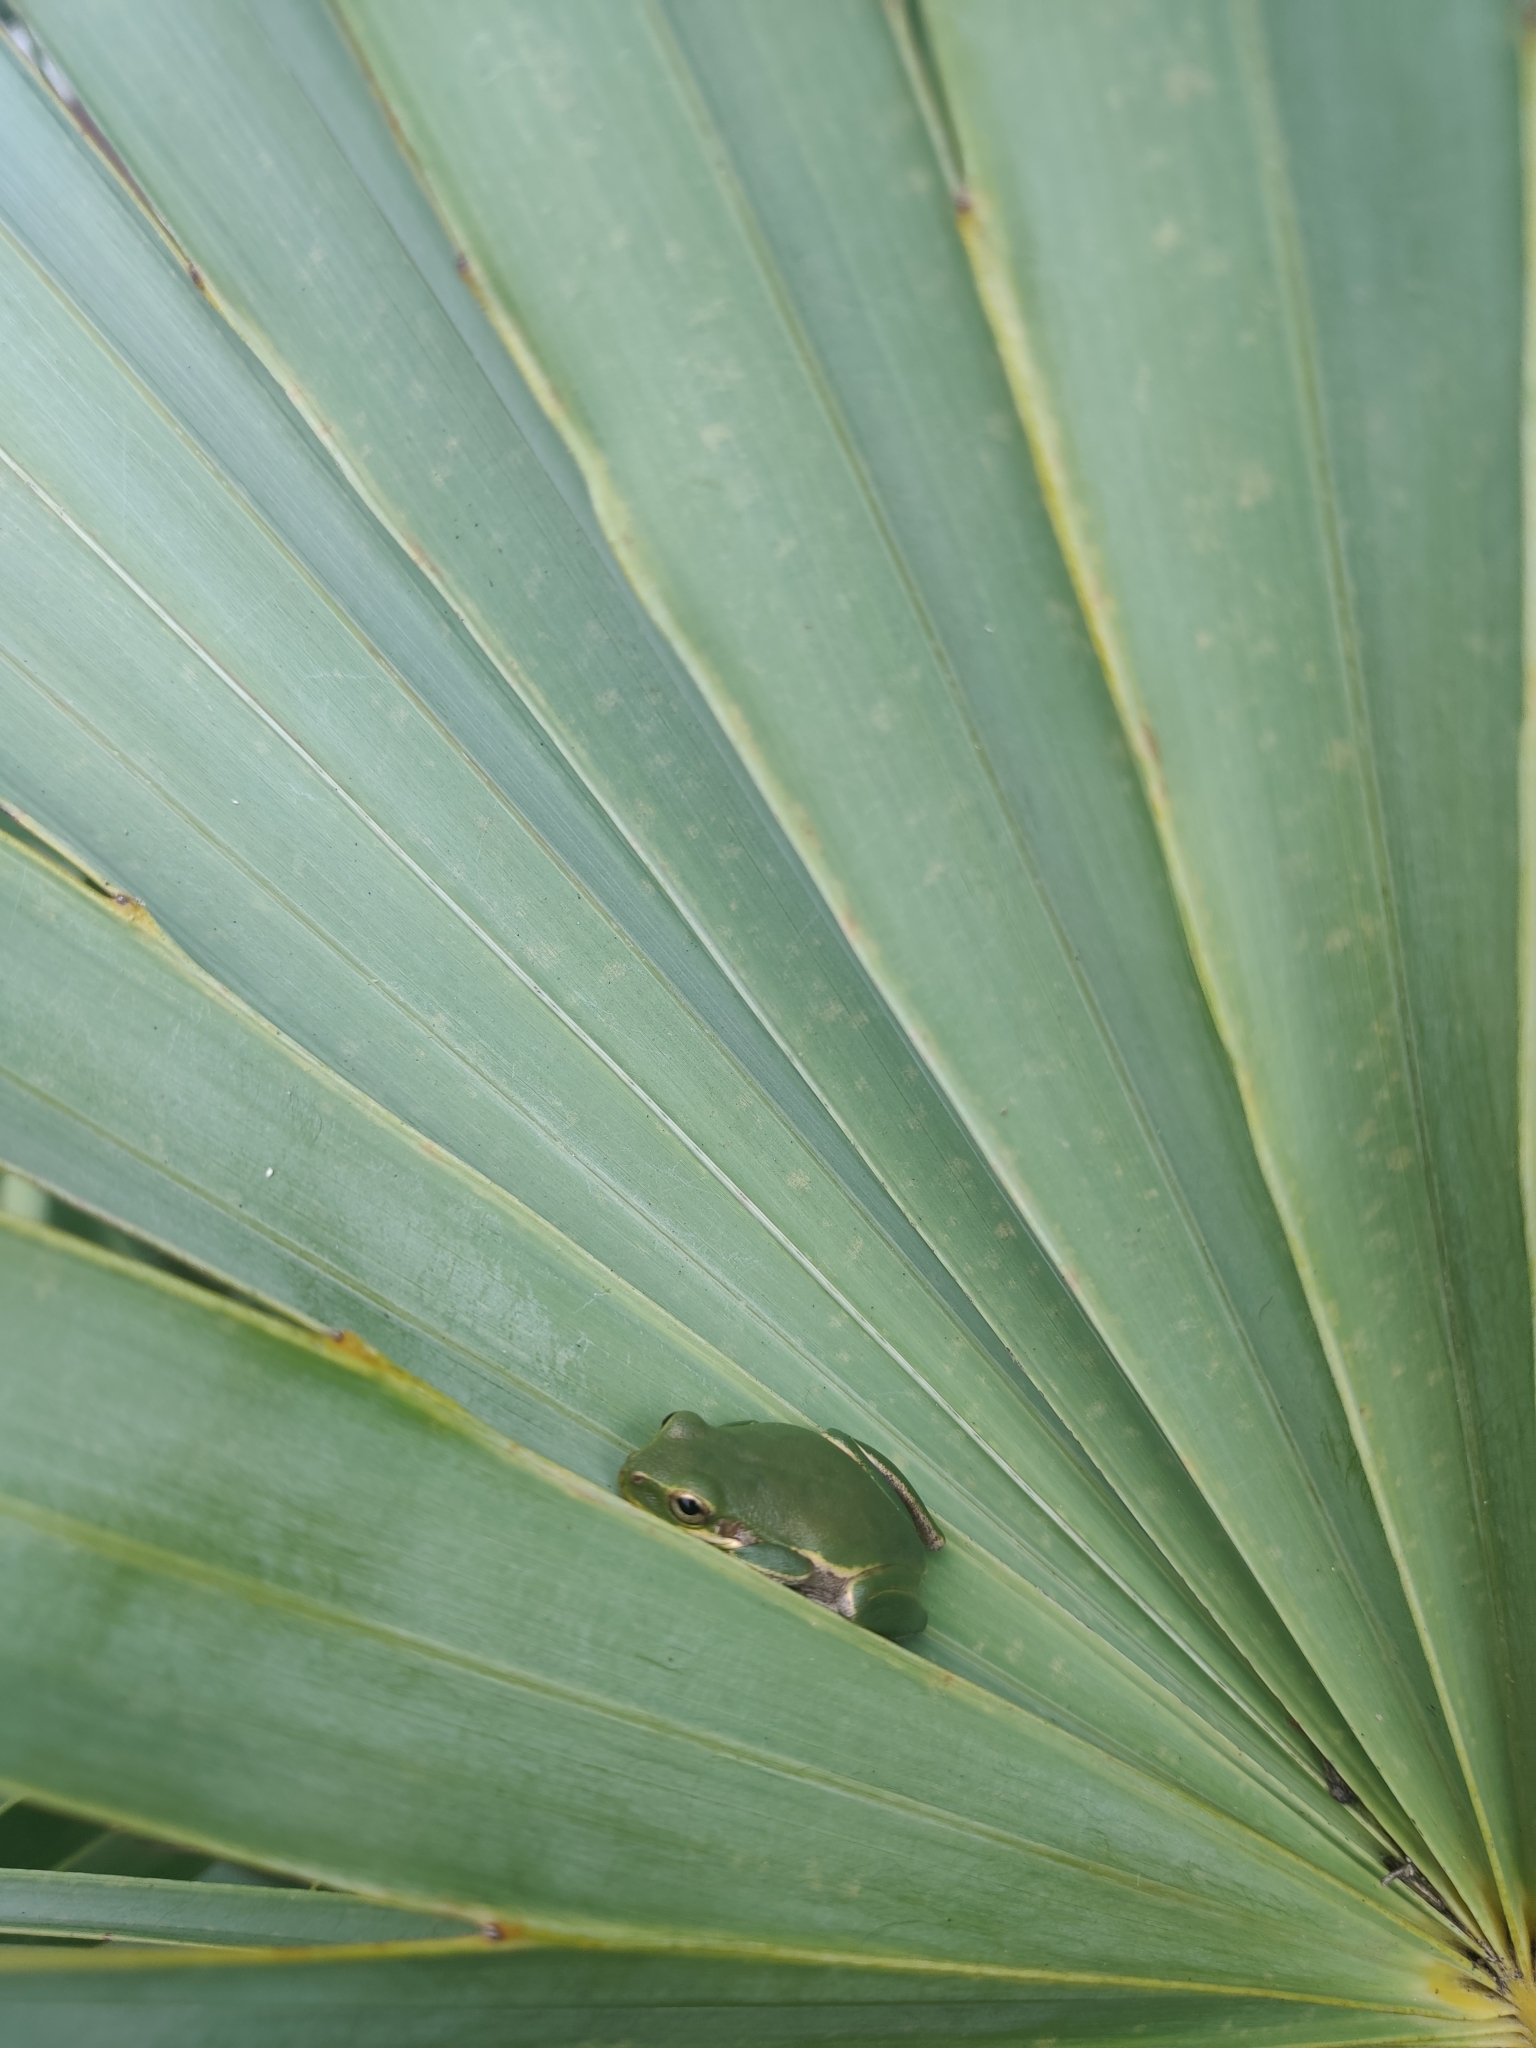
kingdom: Animalia
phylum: Chordata
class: Amphibia
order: Anura
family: Hylidae
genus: Dryophytes
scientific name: Dryophytes squirellus
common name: Squirrel treefrog
